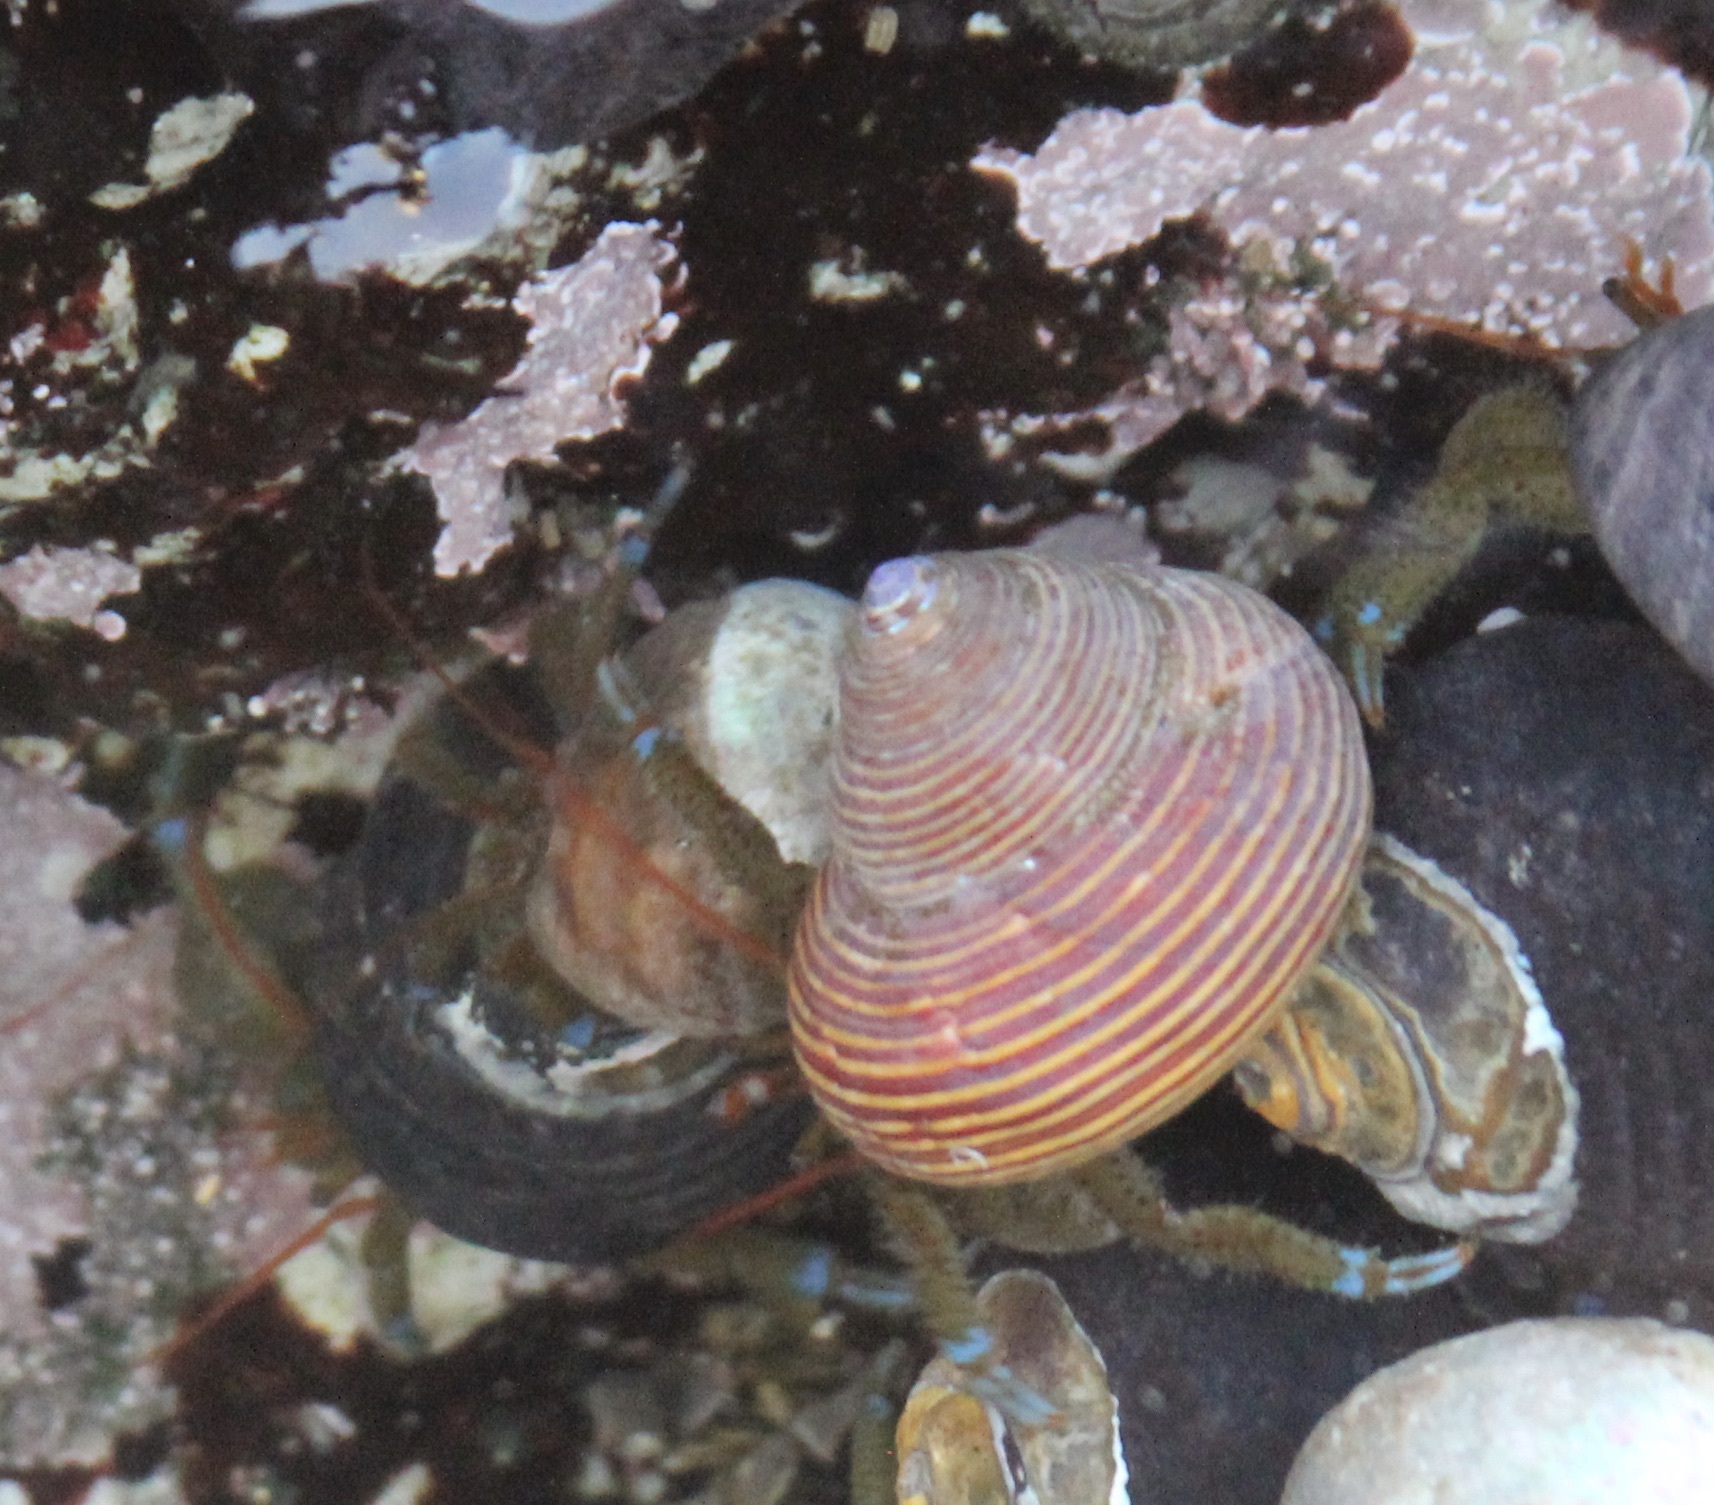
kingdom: Animalia
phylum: Mollusca
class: Gastropoda
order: Trochida
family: Calliostomatidae
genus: Calliostoma
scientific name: Calliostoma ligatum
